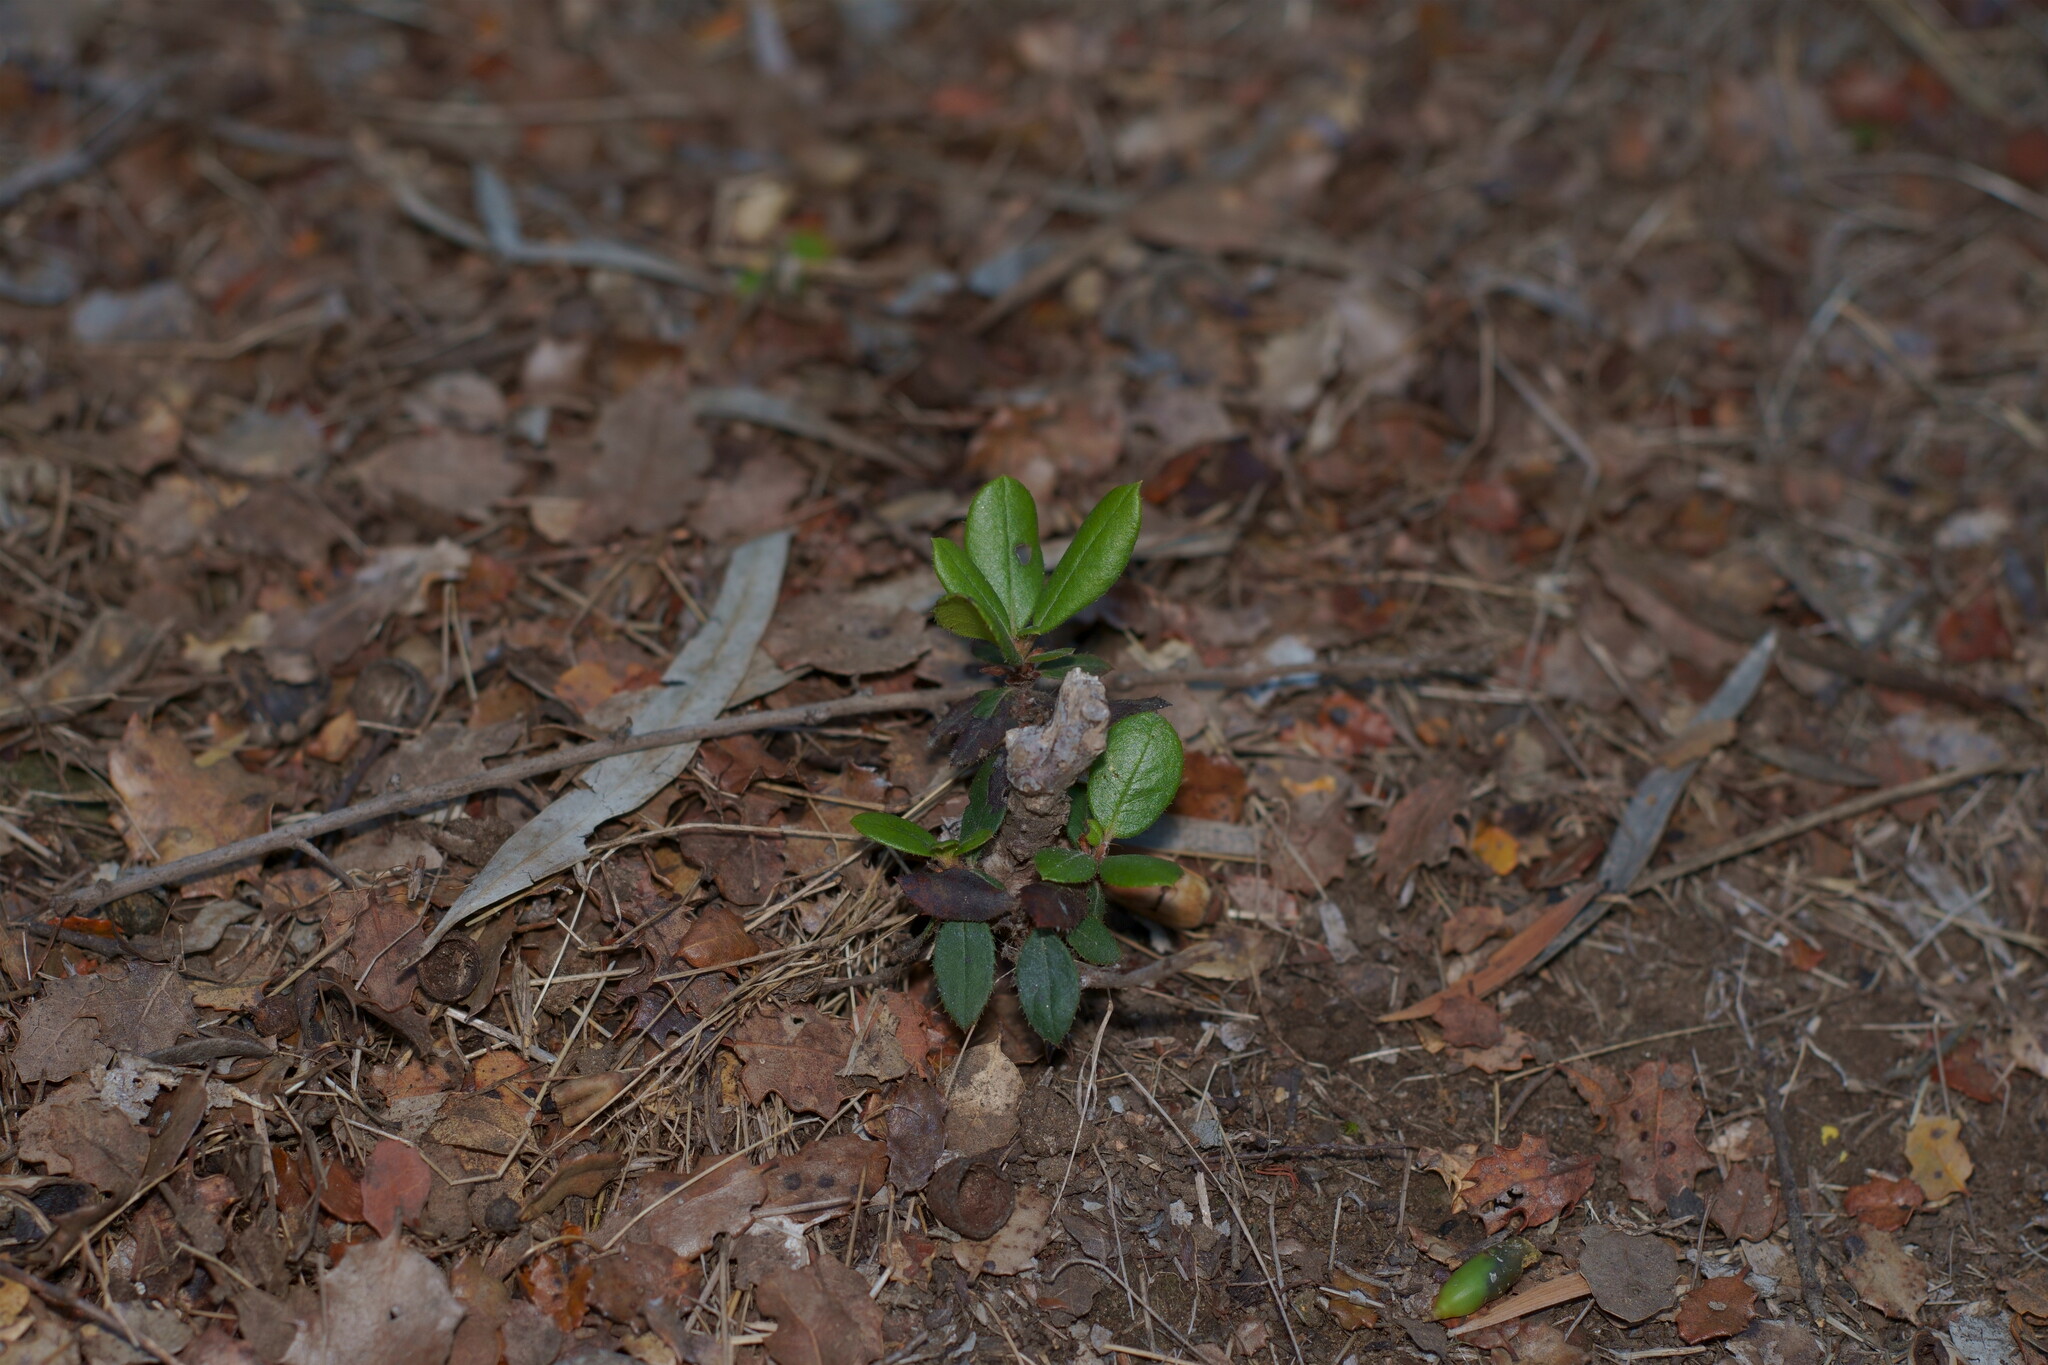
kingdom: Plantae
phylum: Tracheophyta
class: Magnoliopsida
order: Ericales
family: Ericaceae
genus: Arctostaphylos
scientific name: Arctostaphylos bicolor
